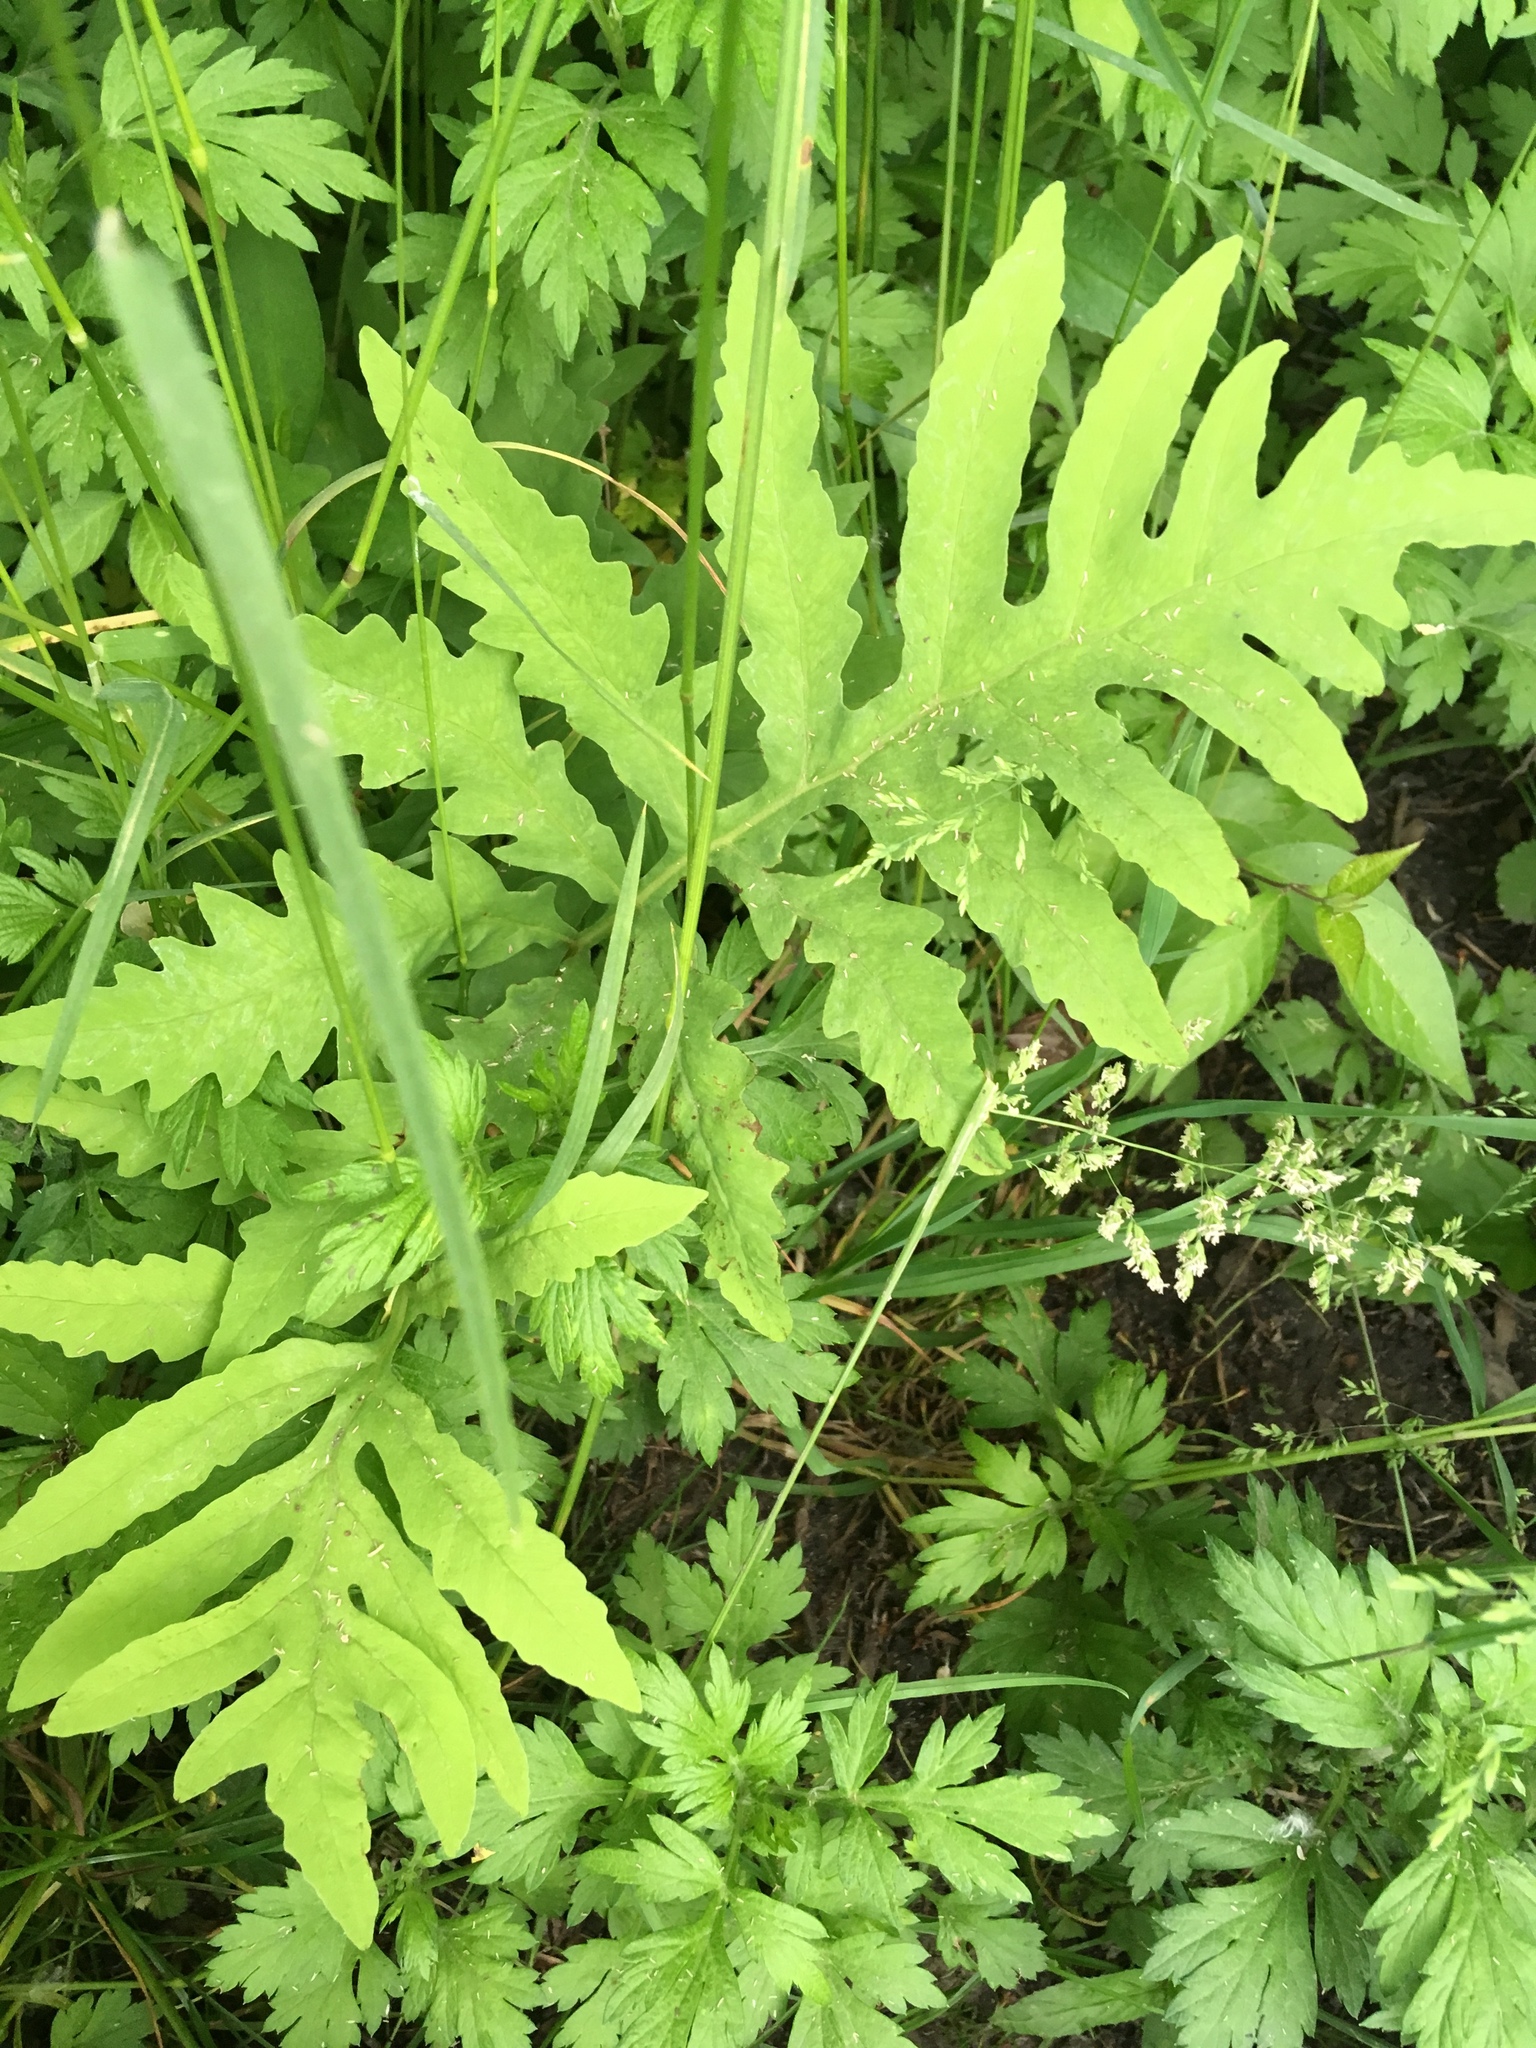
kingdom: Plantae
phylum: Tracheophyta
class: Polypodiopsida
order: Polypodiales
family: Onocleaceae
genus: Onoclea
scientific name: Onoclea sensibilis
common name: Sensitive fern
